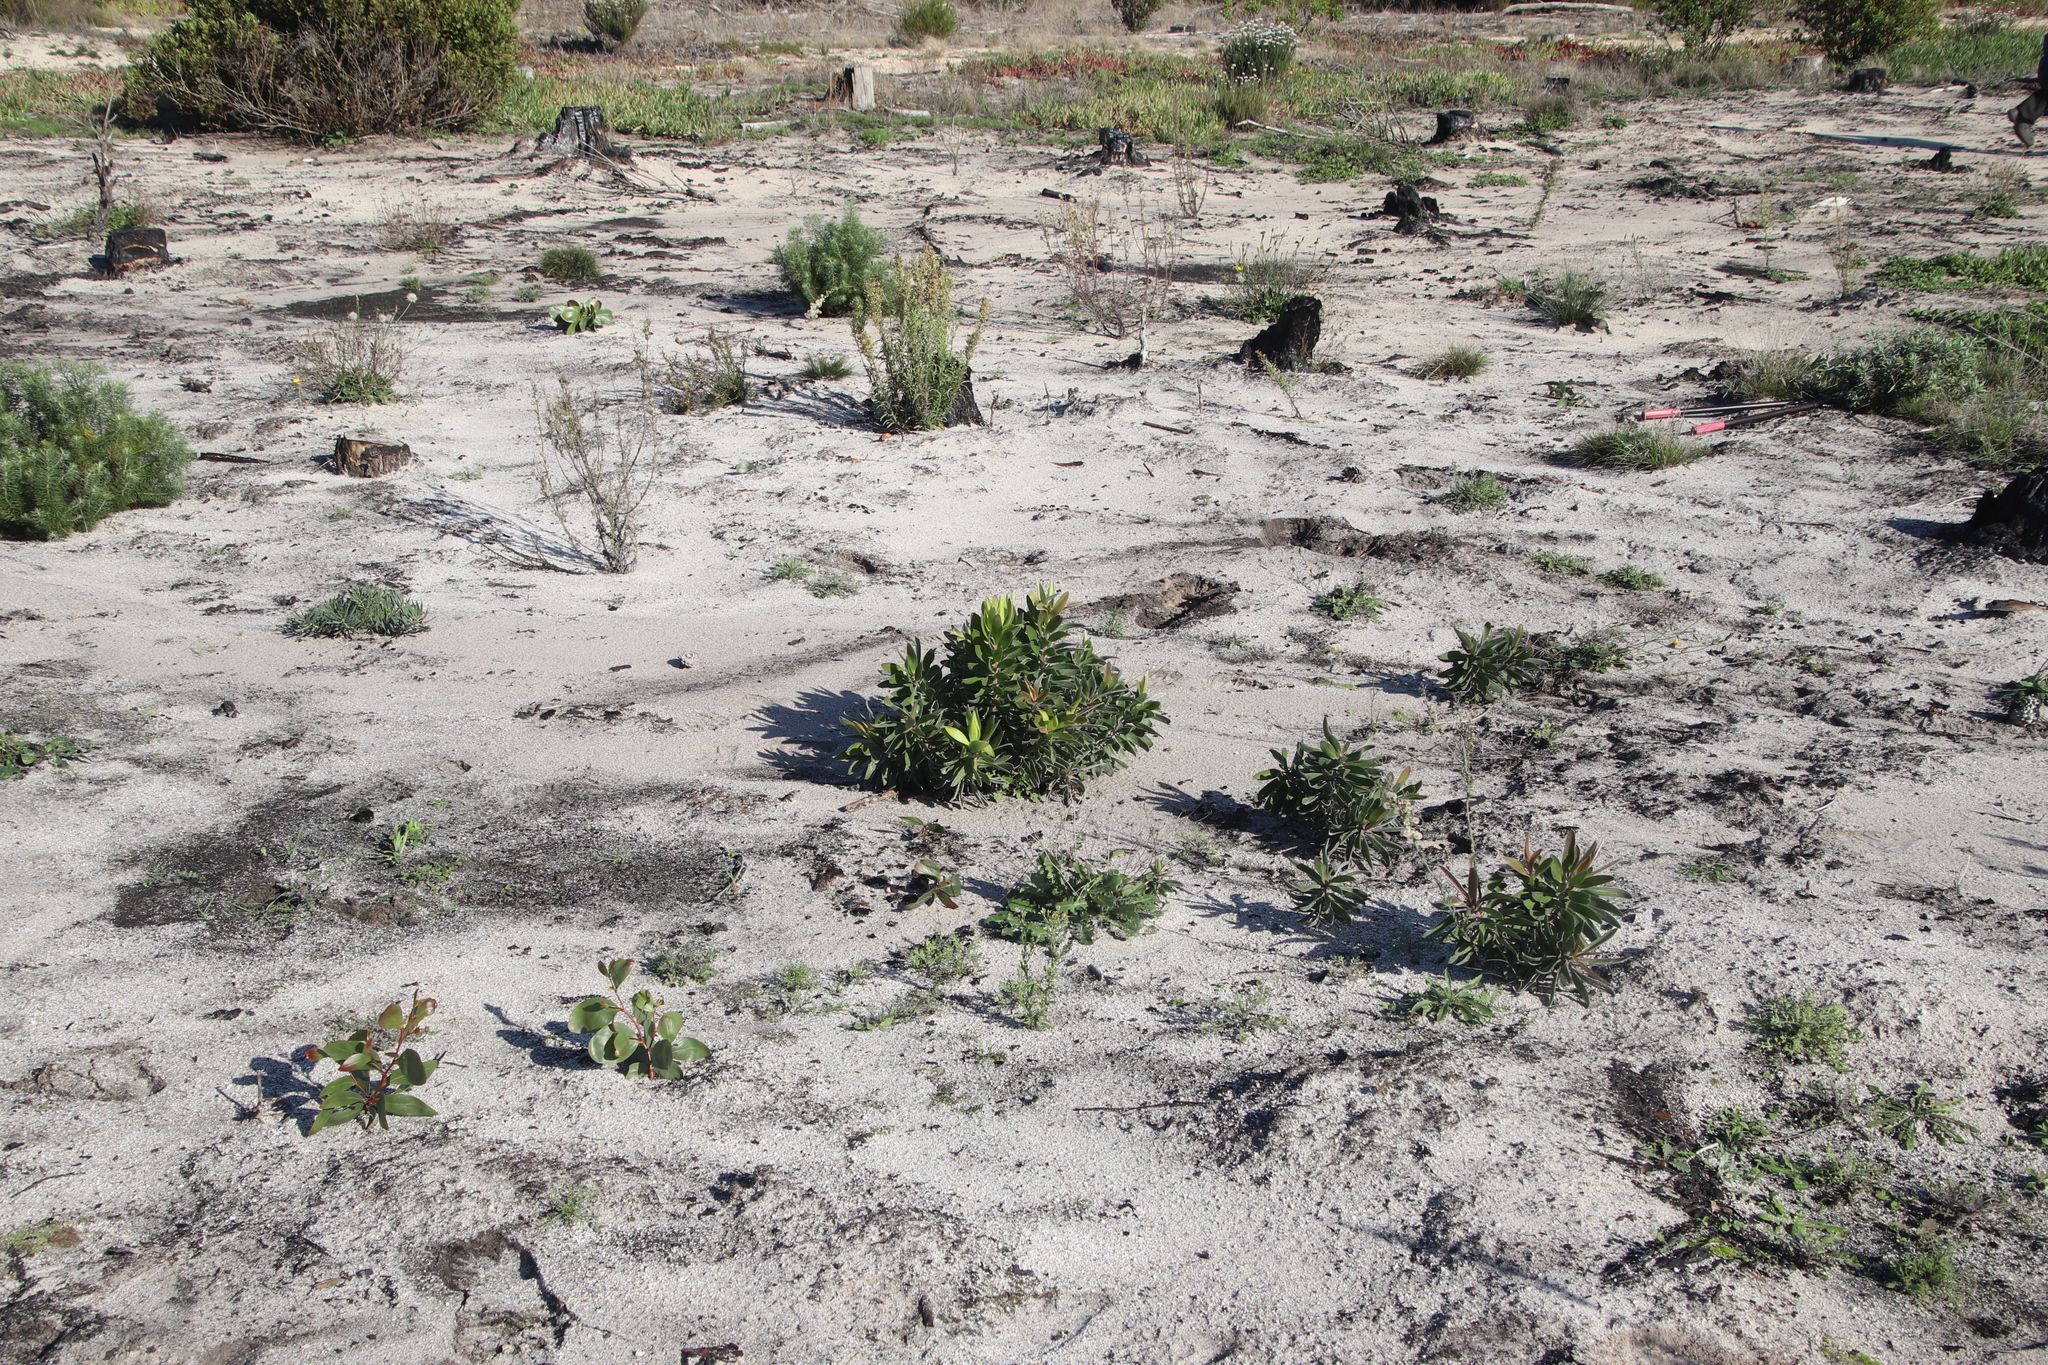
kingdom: Plantae
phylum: Tracheophyta
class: Magnoliopsida
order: Proteales
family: Proteaceae
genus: Leucadendron
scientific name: Leucadendron laureolum
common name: Golden sunshinebush
